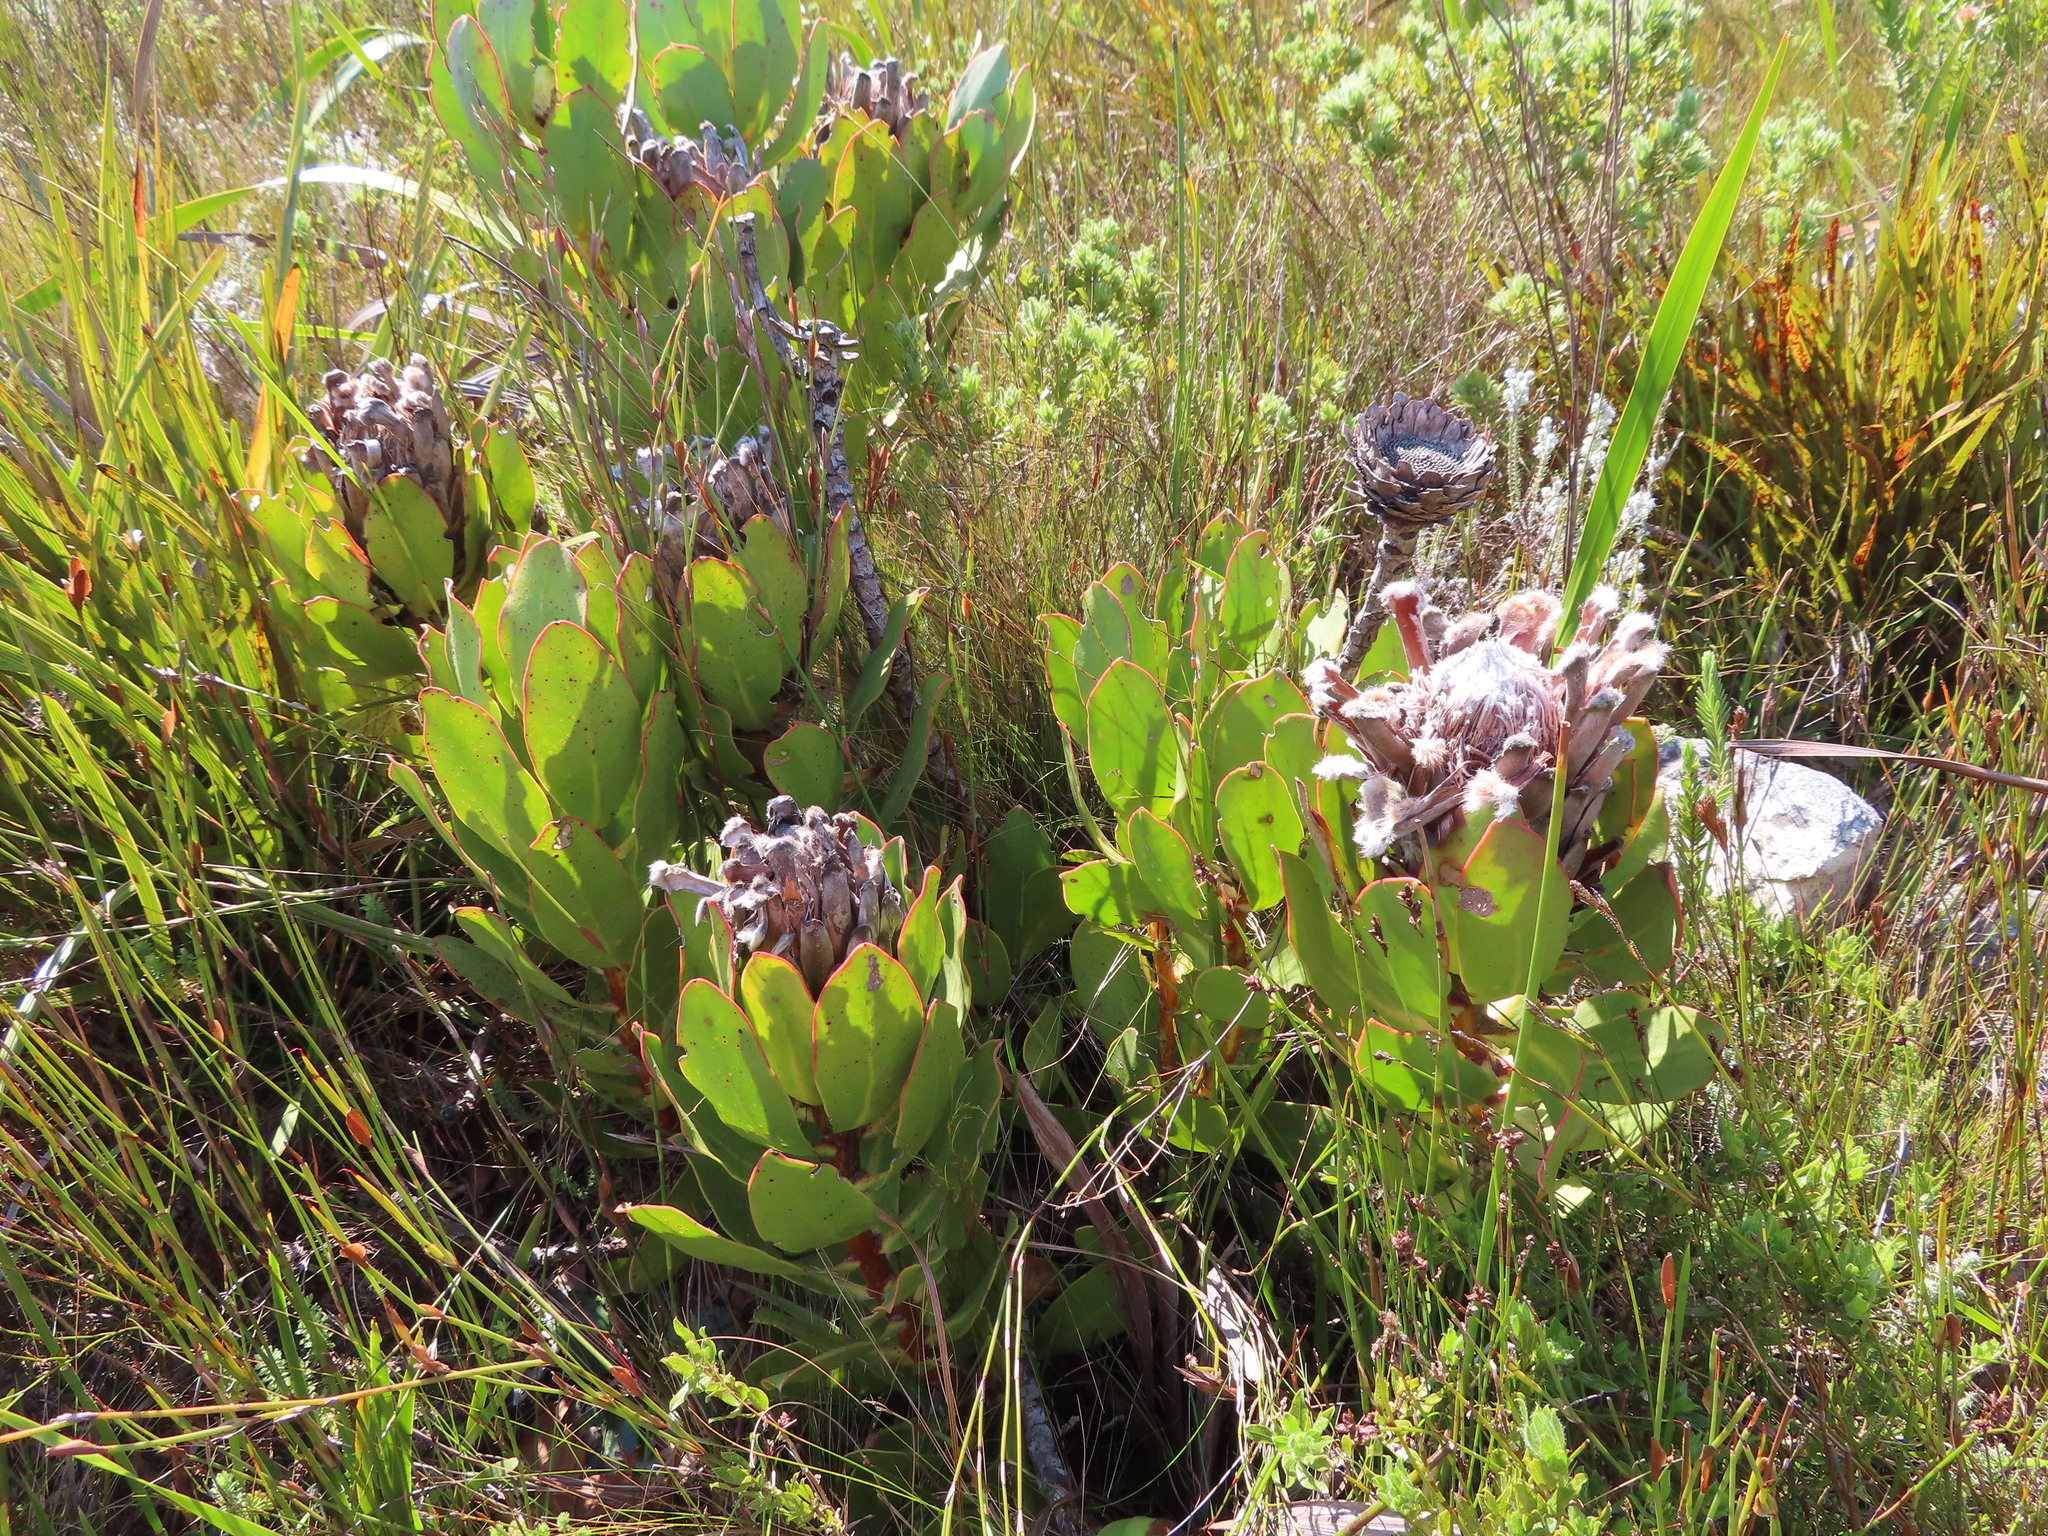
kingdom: Plantae
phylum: Tracheophyta
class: Magnoliopsida
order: Proteales
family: Proteaceae
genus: Protea
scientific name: Protea speciosa
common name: Brown-beard sugarbush
